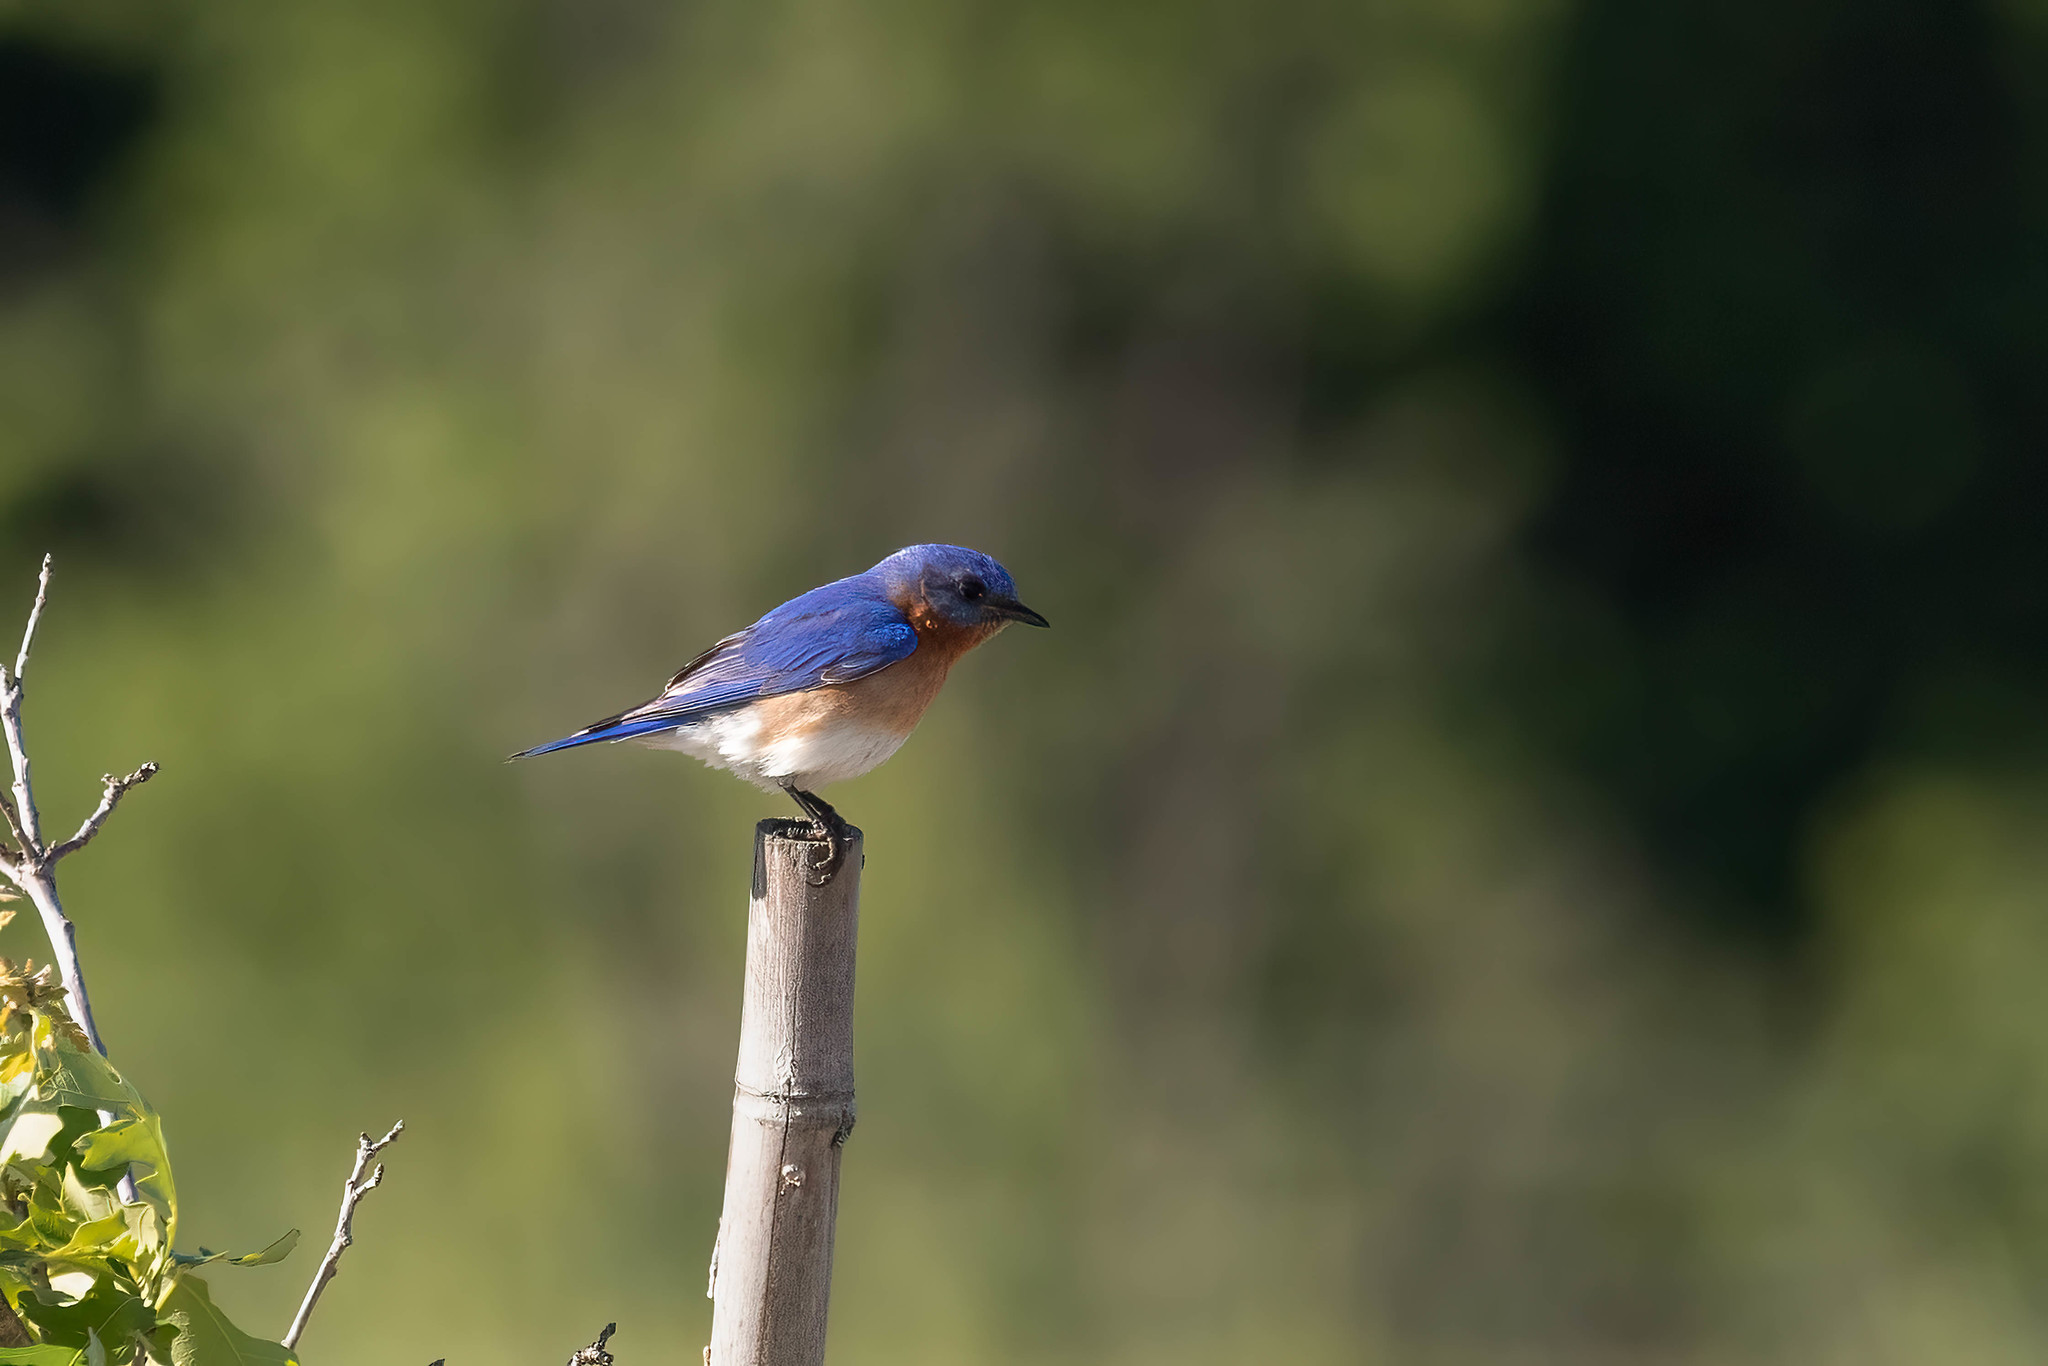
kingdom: Animalia
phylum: Chordata
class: Aves
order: Passeriformes
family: Turdidae
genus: Sialia
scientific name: Sialia sialis
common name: Eastern bluebird
